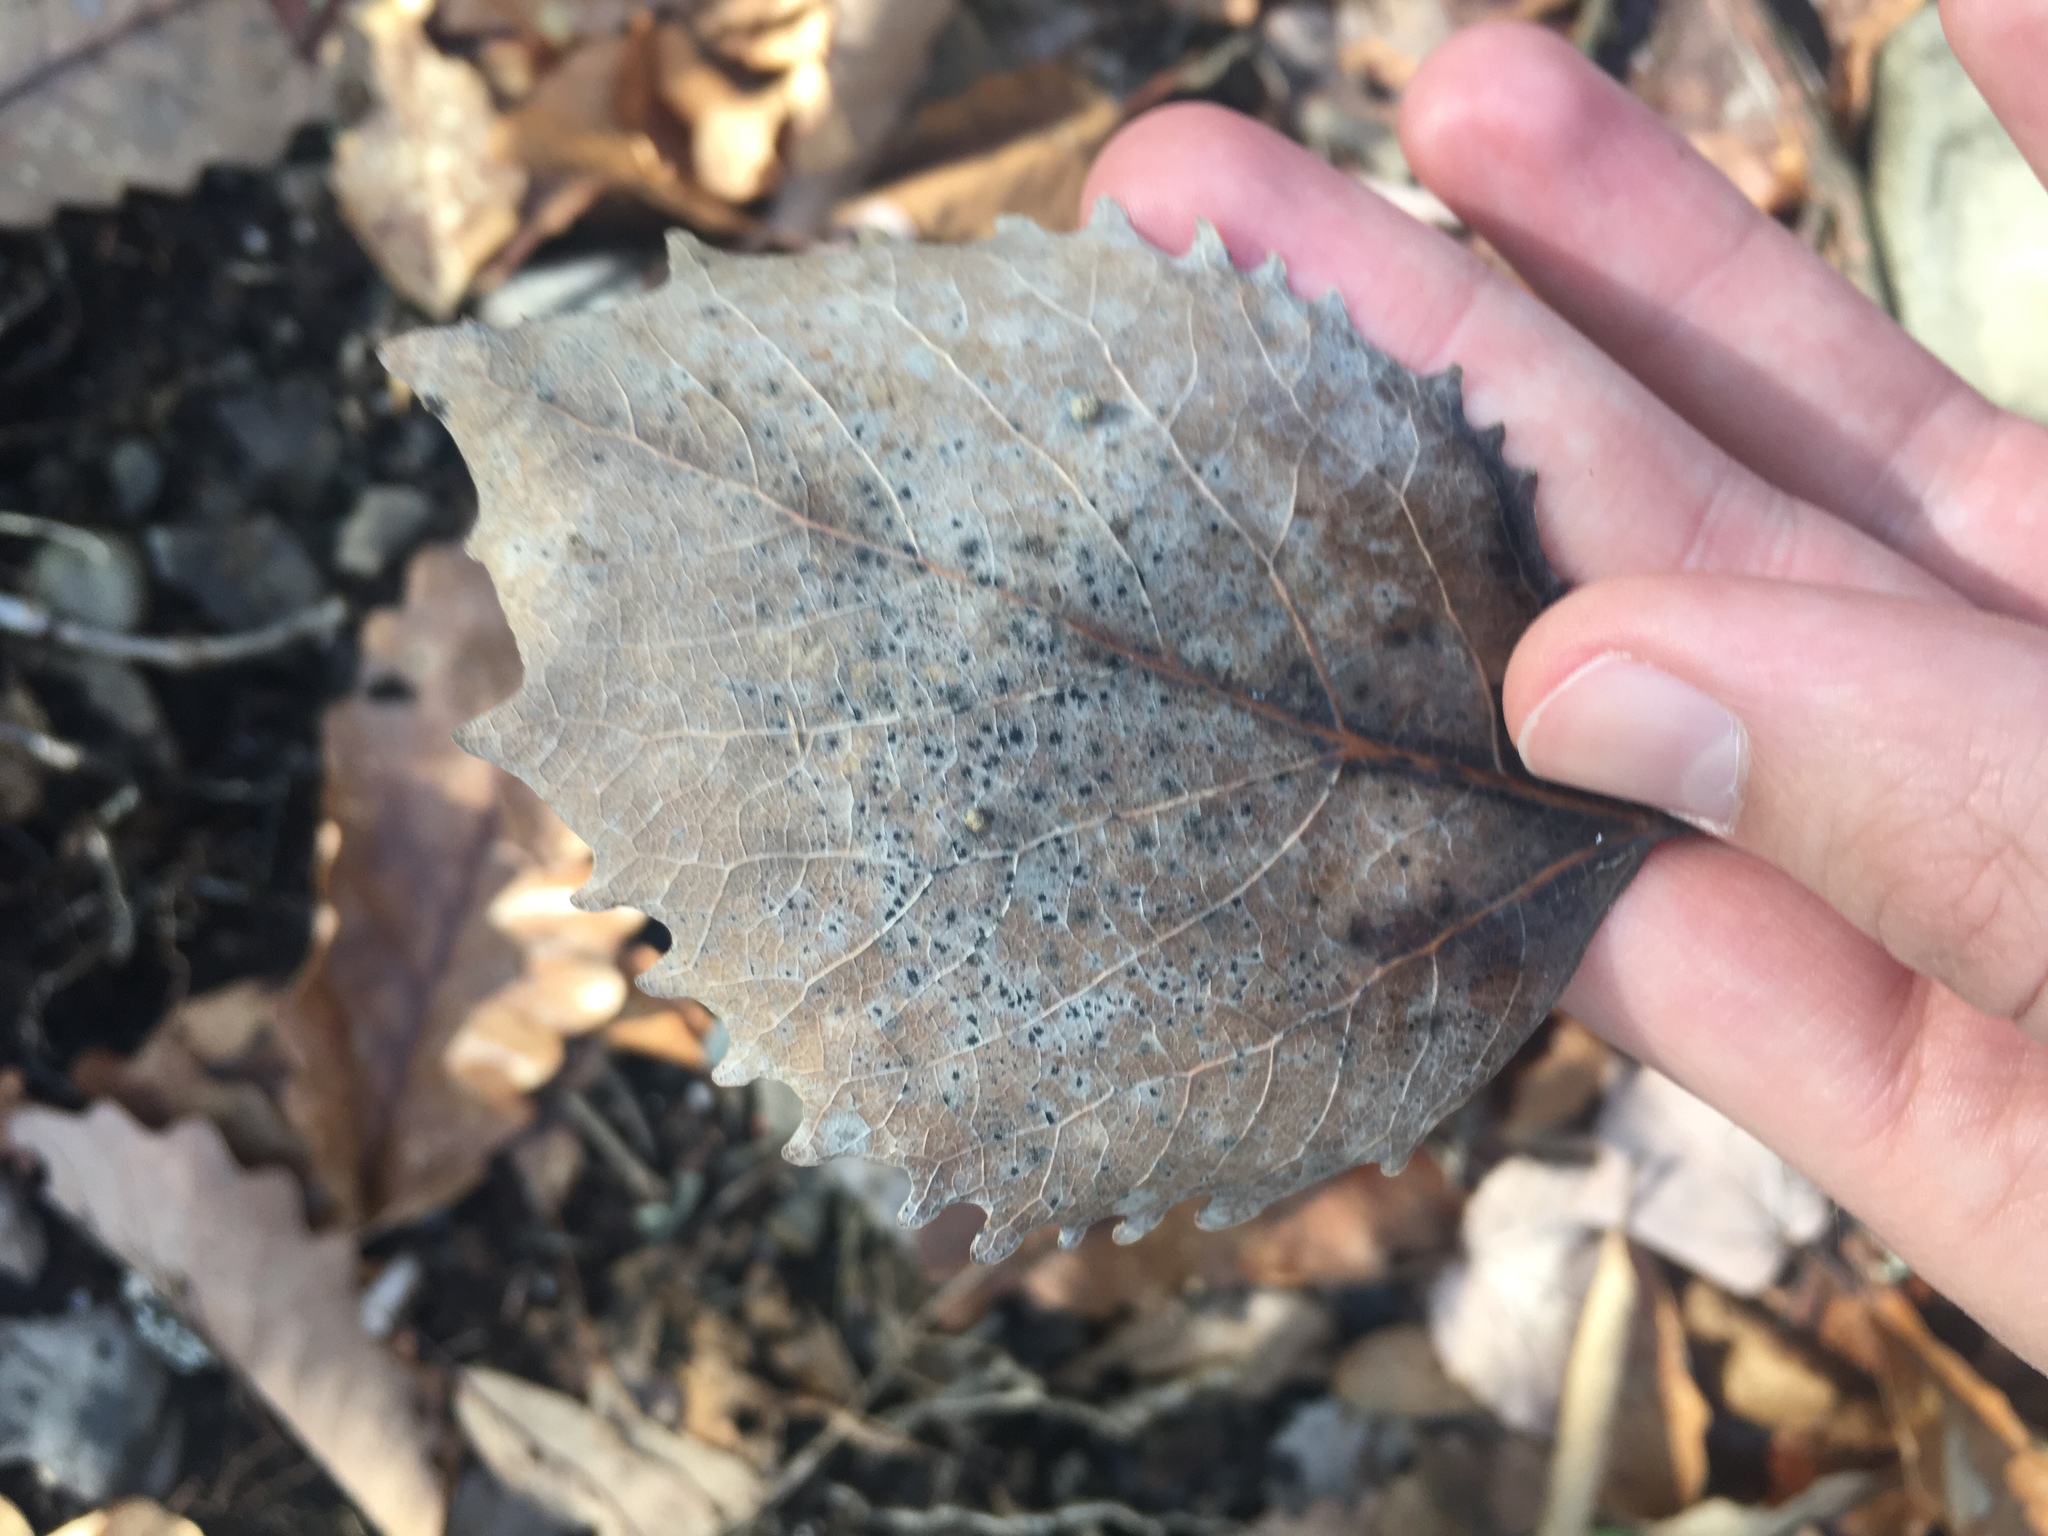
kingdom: Plantae
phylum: Tracheophyta
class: Magnoliopsida
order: Malpighiales
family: Salicaceae
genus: Populus
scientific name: Populus grandidentata
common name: Bigtooth aspen
